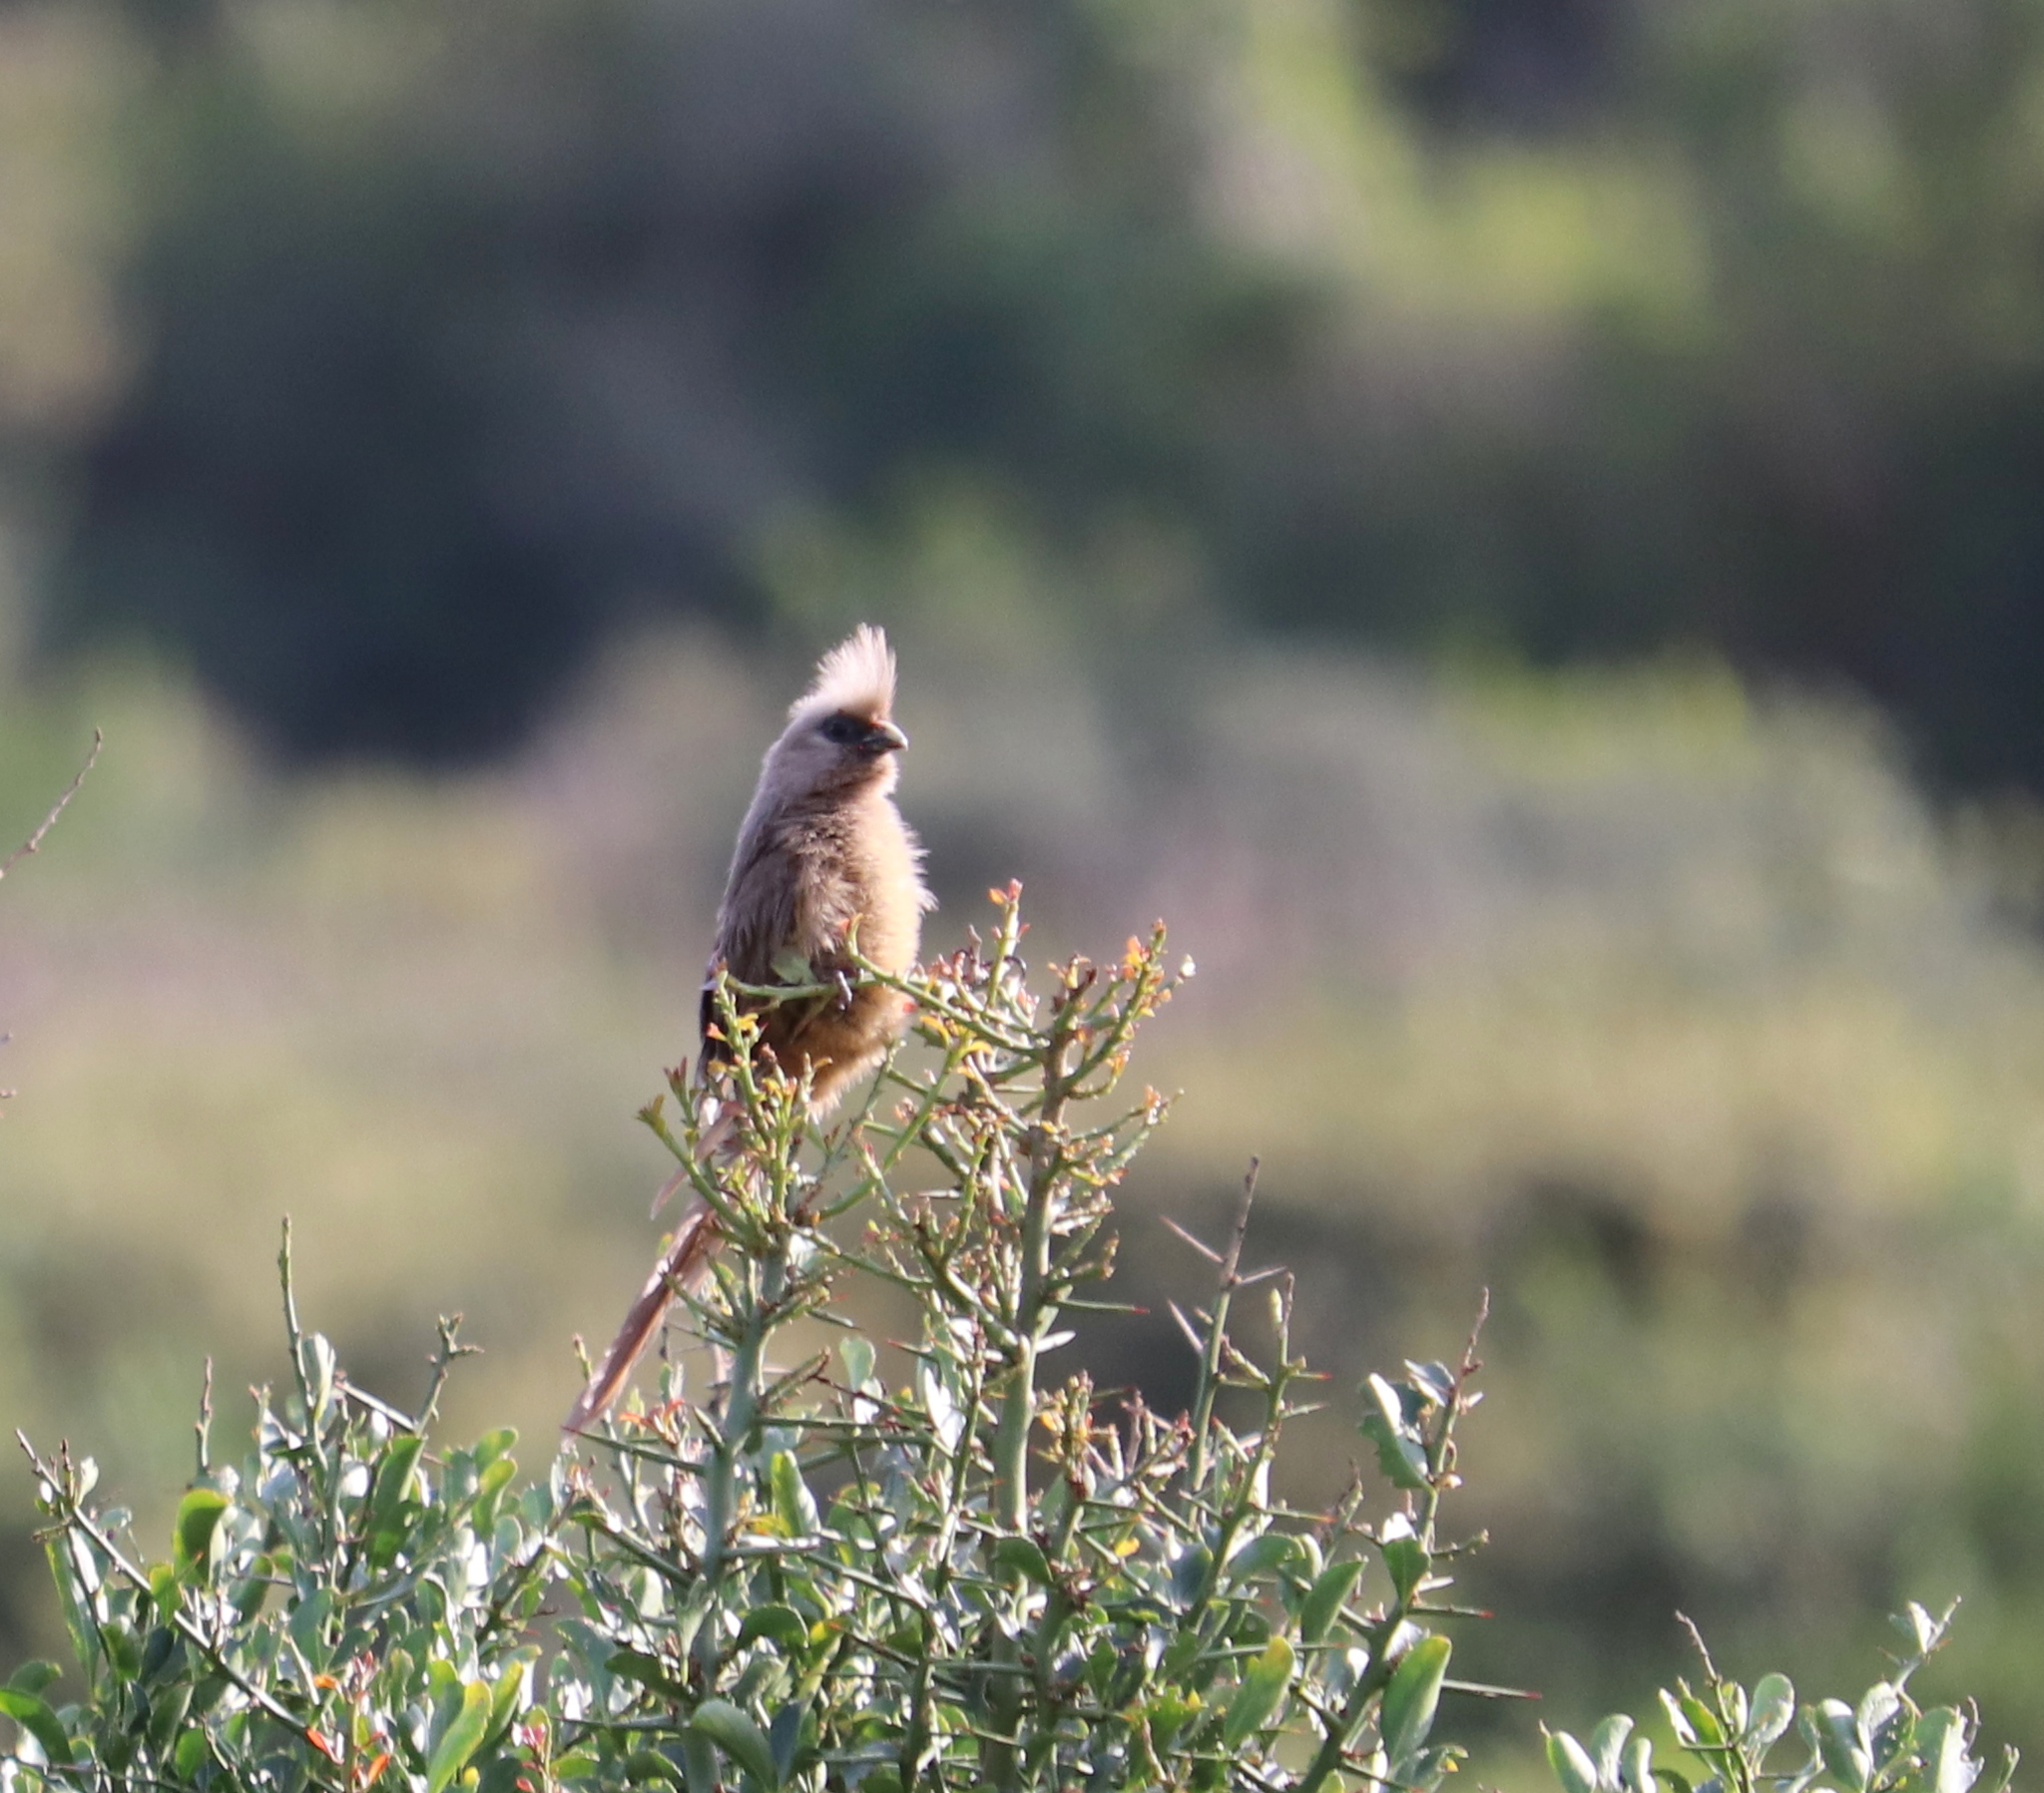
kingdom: Animalia
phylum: Chordata
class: Aves
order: Coliiformes
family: Coliidae
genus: Colius
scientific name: Colius striatus
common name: Speckled mousebird
